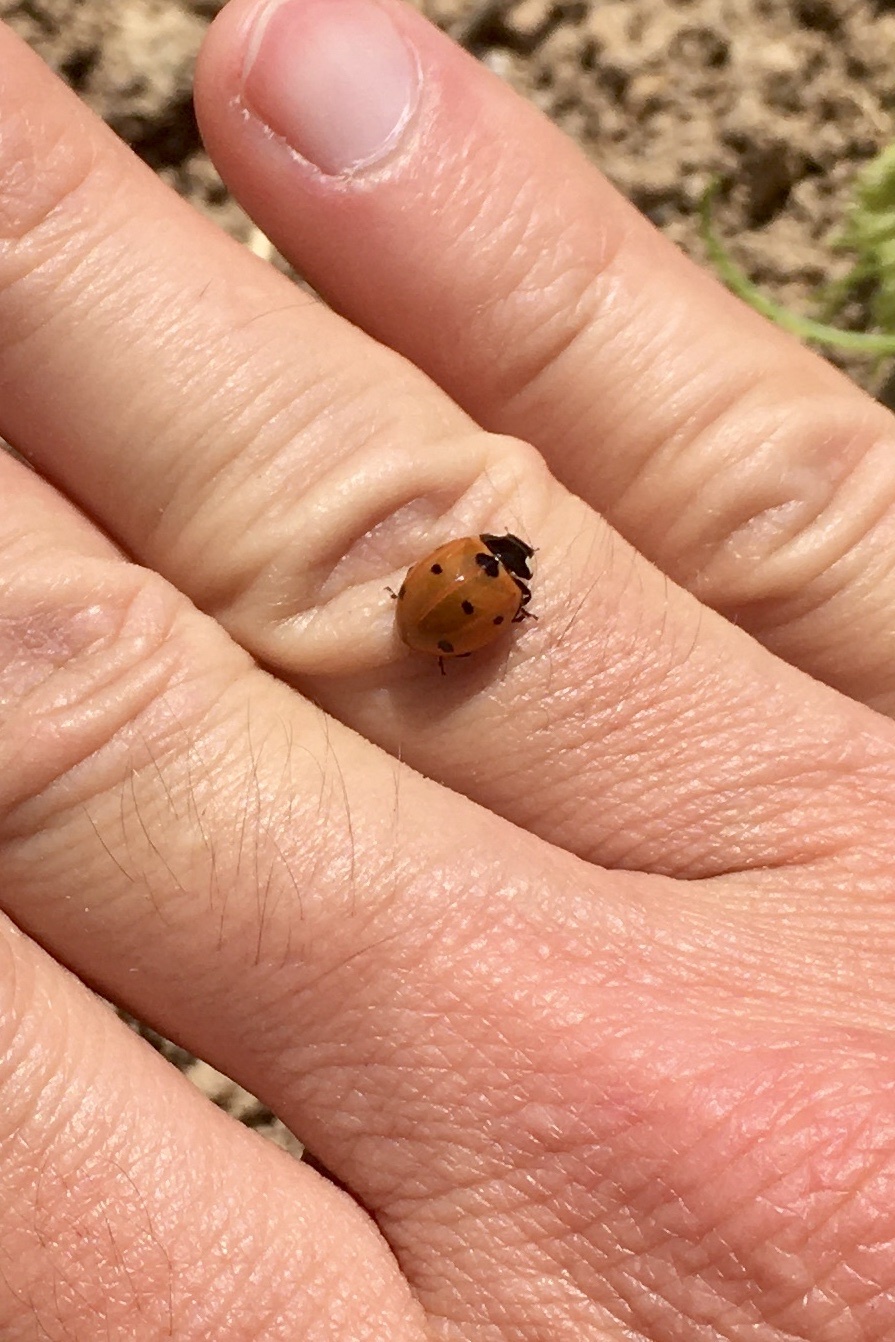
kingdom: Animalia
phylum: Arthropoda
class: Insecta
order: Coleoptera
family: Coccinellidae
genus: Coccinella
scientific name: Coccinella septempunctata
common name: Sevenspotted lady beetle
